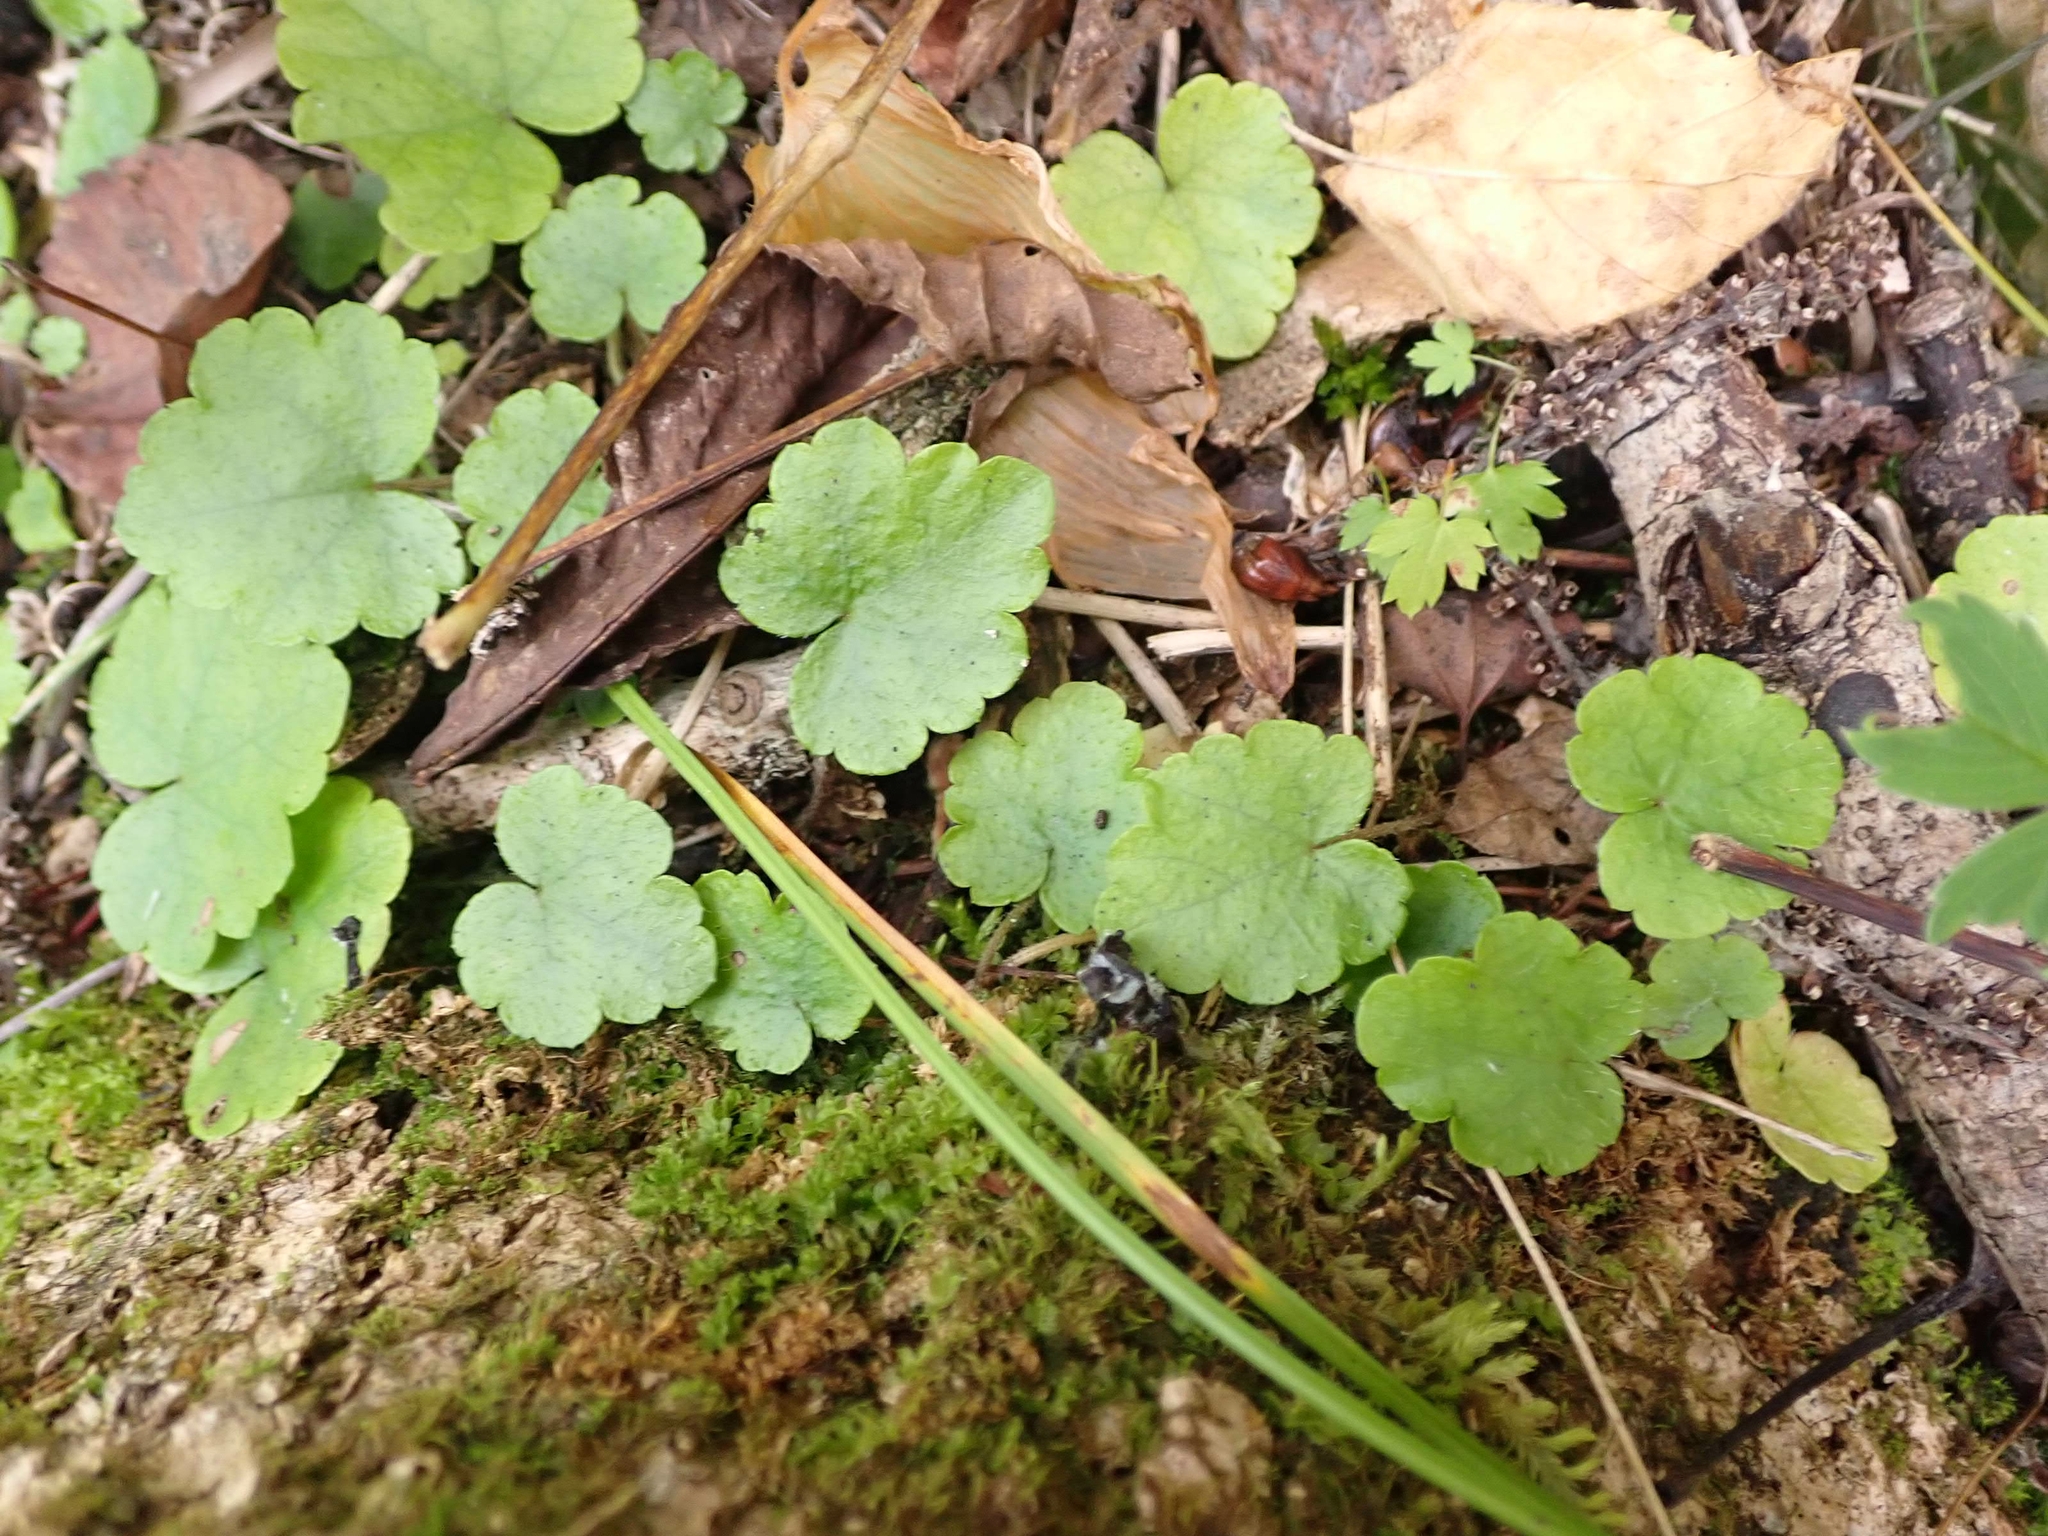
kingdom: Plantae
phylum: Tracheophyta
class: Magnoliopsida
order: Saxifragales
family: Saxifragaceae
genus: Mitella
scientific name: Mitella nuda
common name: Bare-stemmed bishop's-cap
